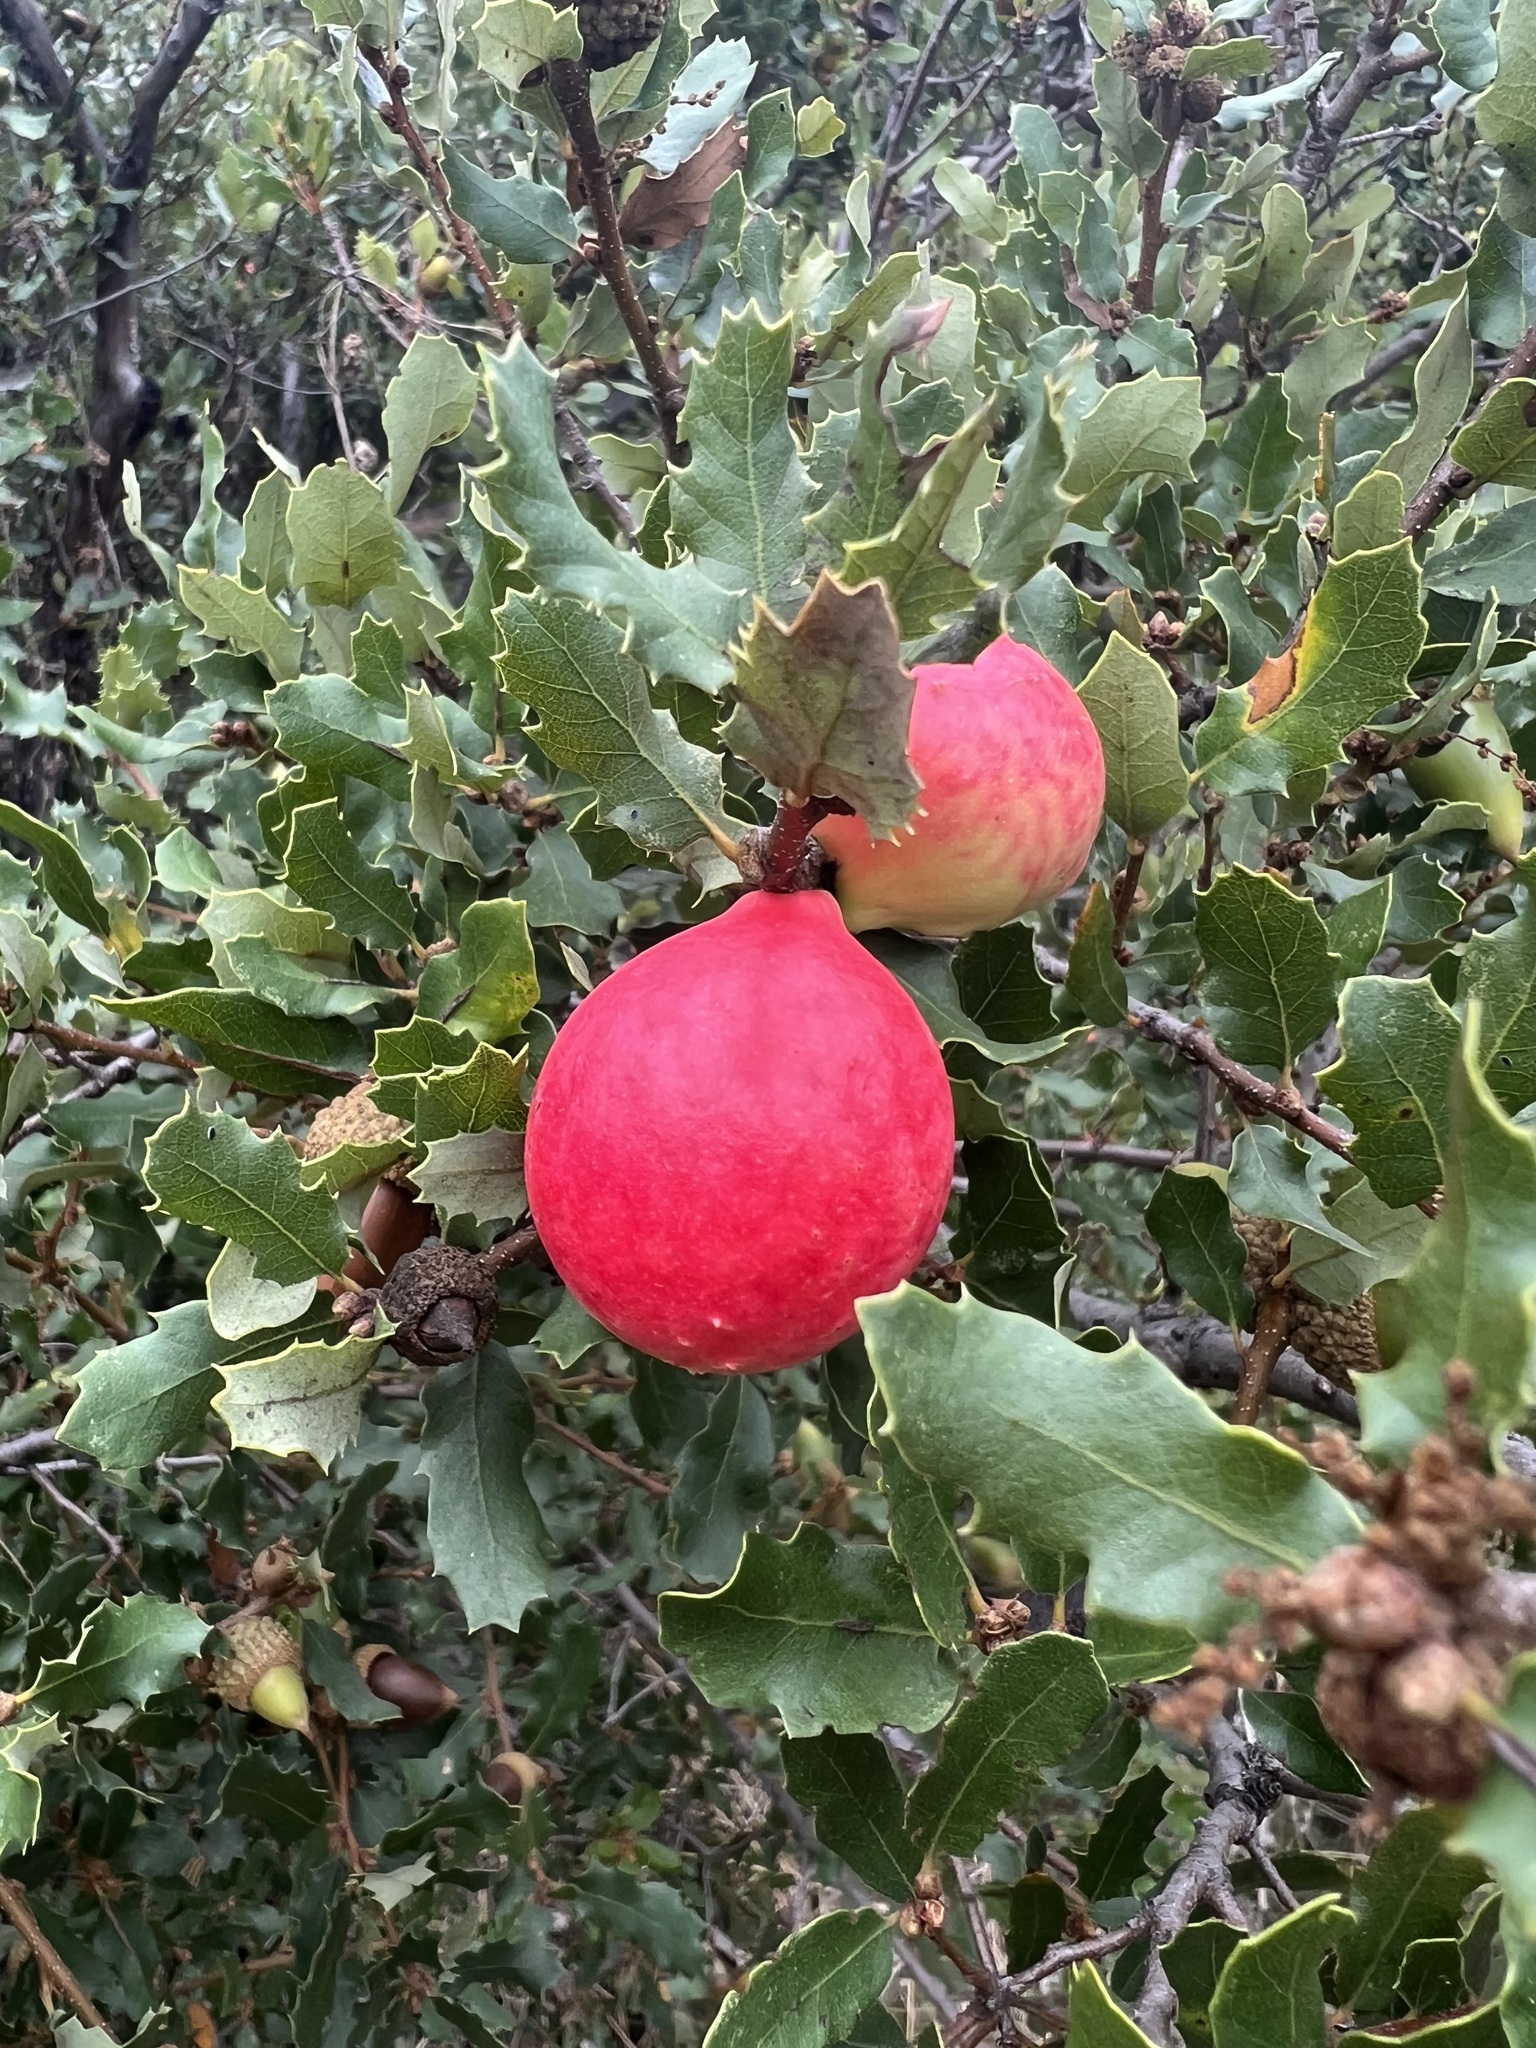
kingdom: Animalia
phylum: Arthropoda
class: Insecta
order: Hymenoptera
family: Cynipidae
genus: Andricus
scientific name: Andricus quercuscalifornicus
